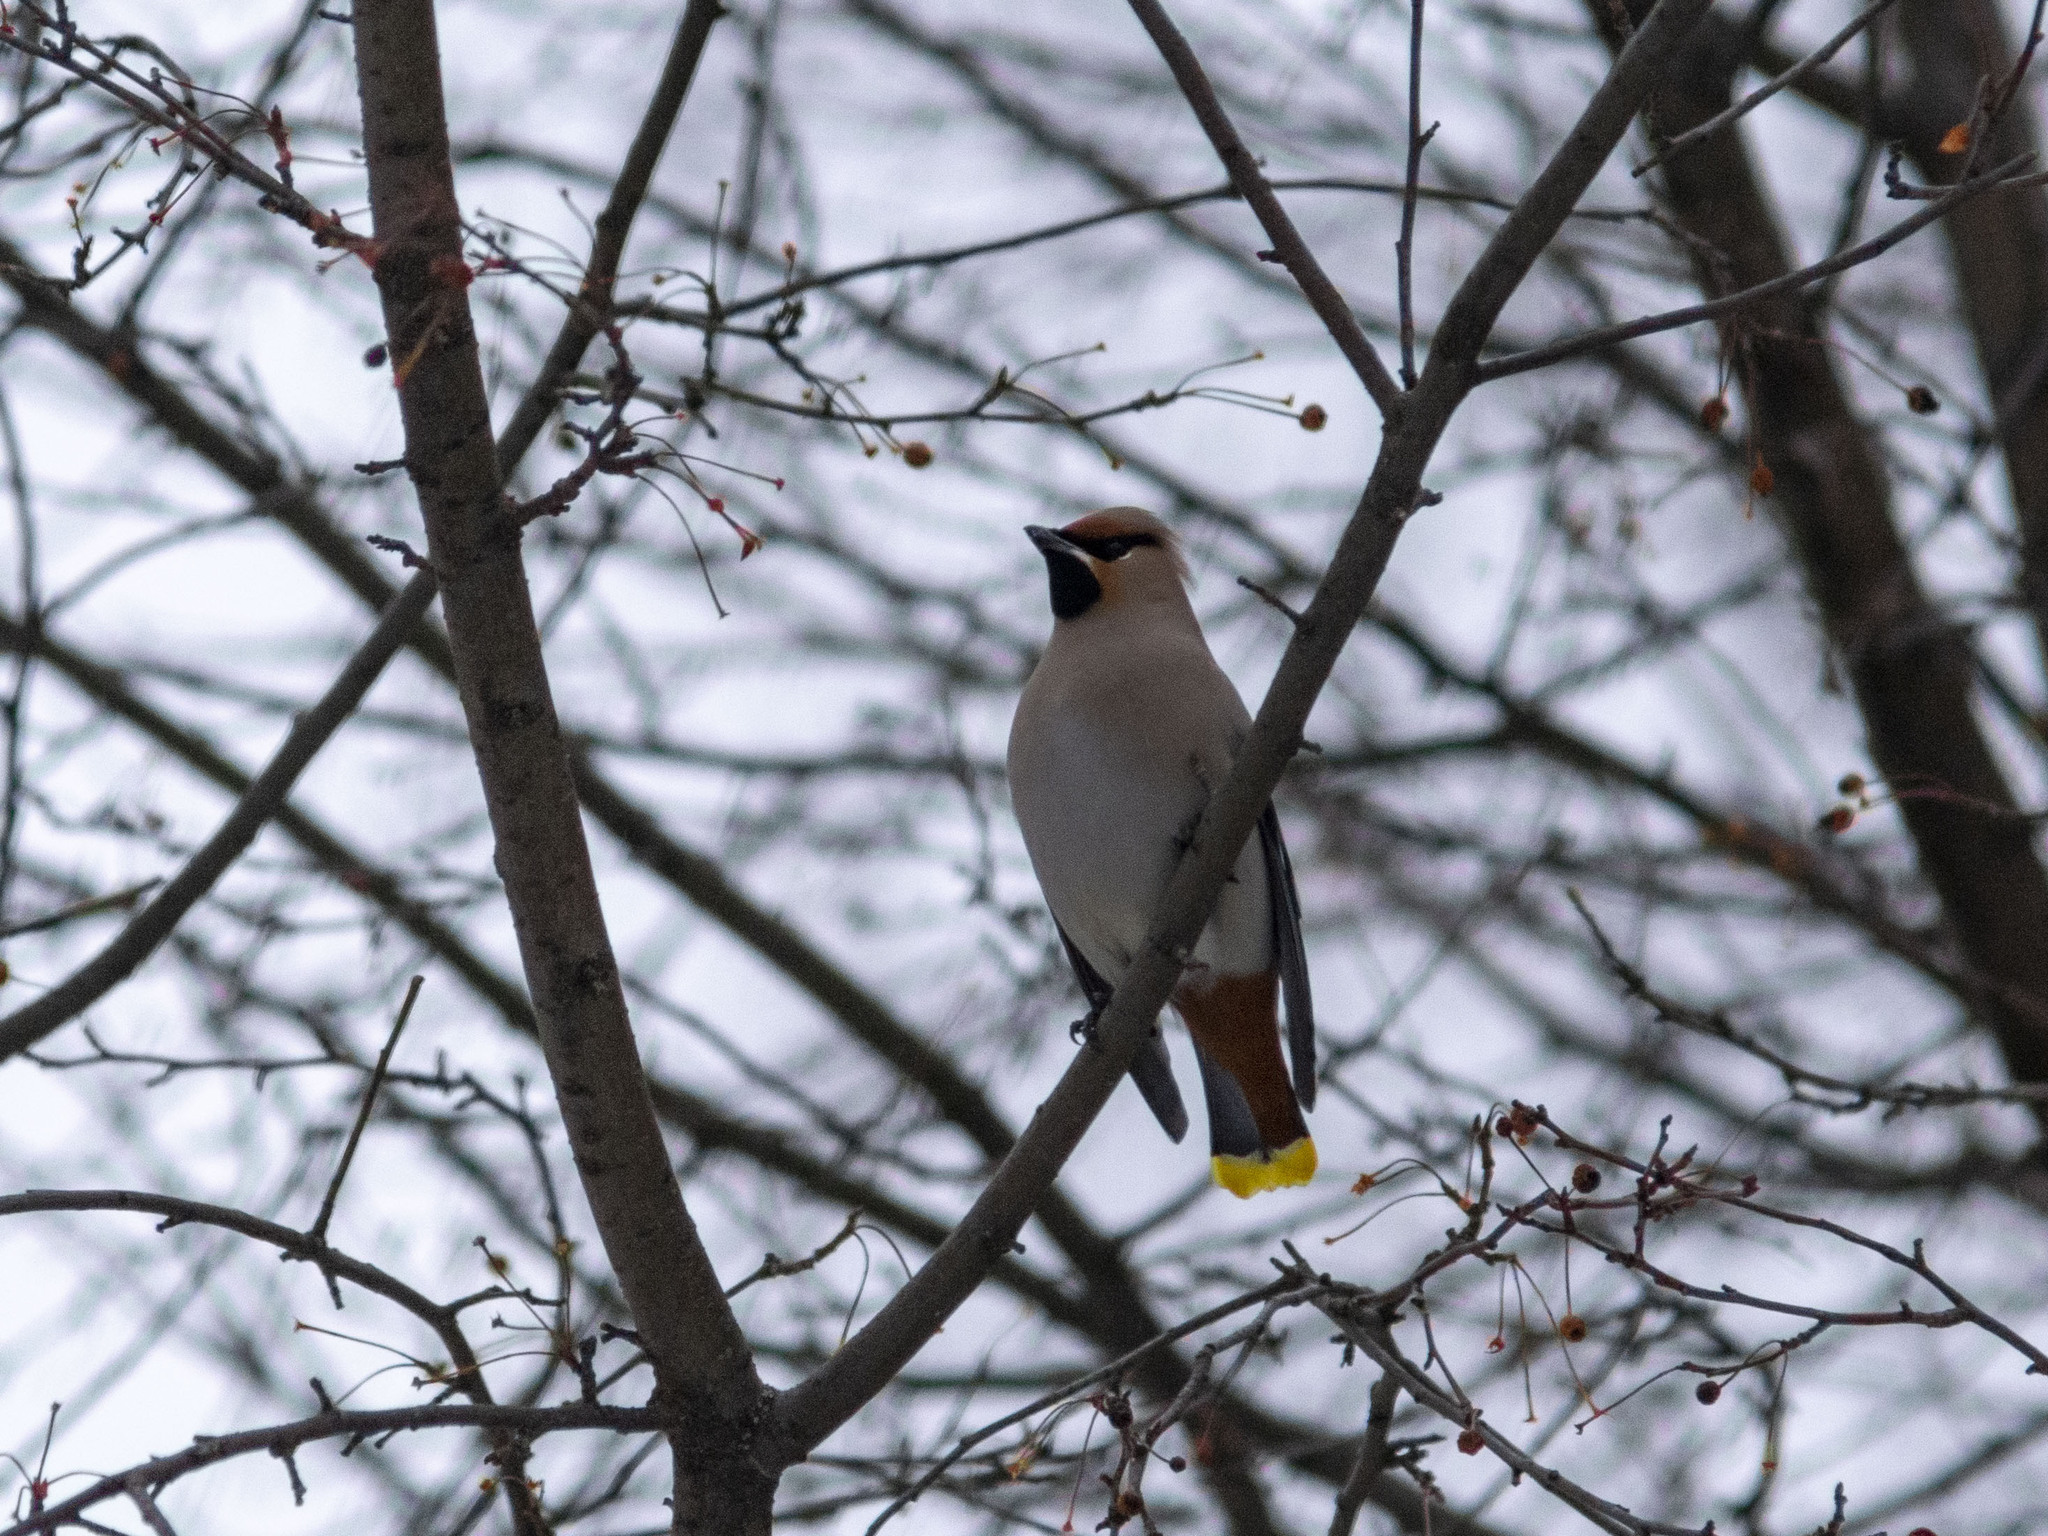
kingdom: Animalia
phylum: Chordata
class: Aves
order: Passeriformes
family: Bombycillidae
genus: Bombycilla
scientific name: Bombycilla garrulus
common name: Bohemian waxwing
